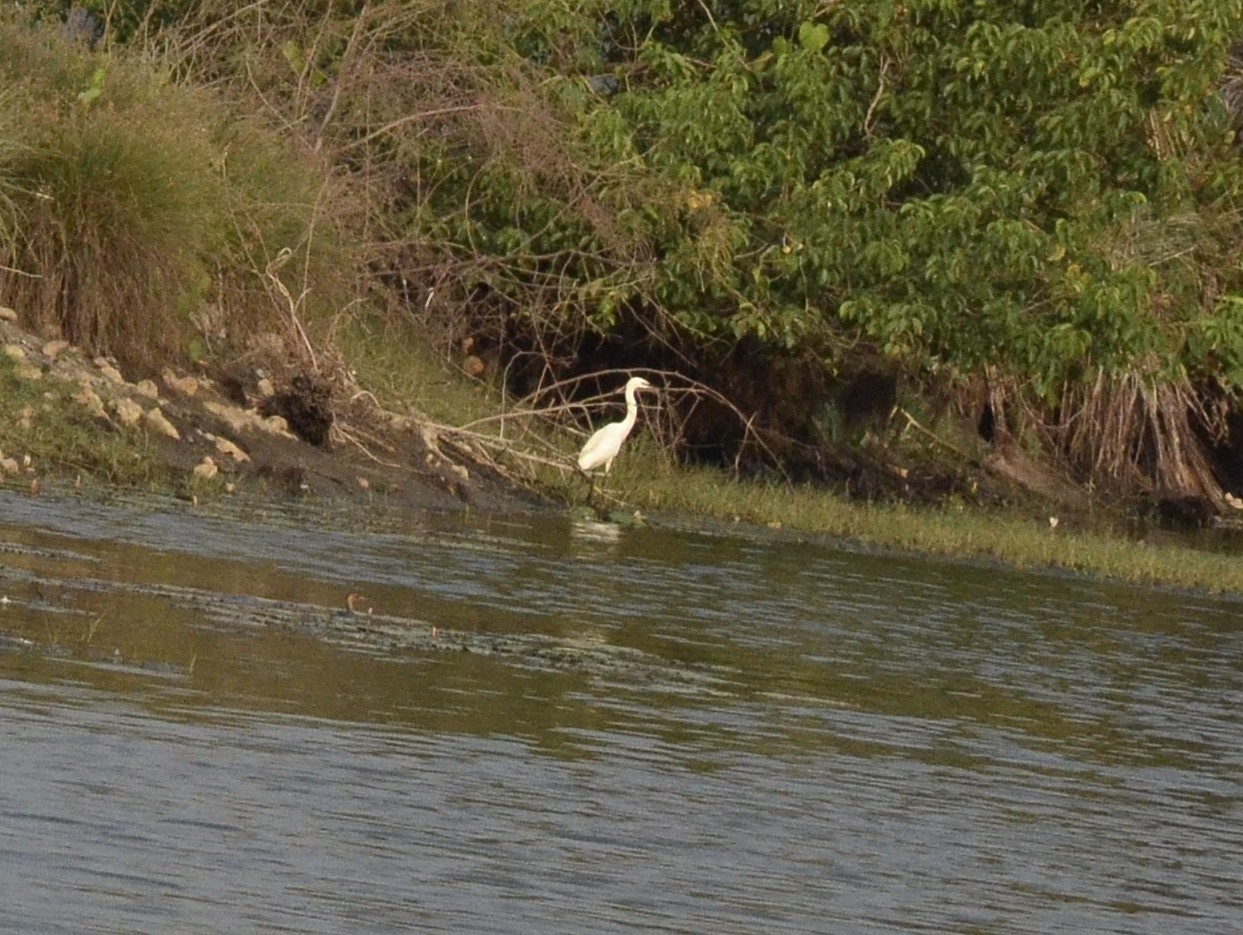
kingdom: Animalia
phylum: Chordata
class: Aves
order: Pelecaniformes
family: Ardeidae
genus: Egretta
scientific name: Egretta garzetta
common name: Little egret
